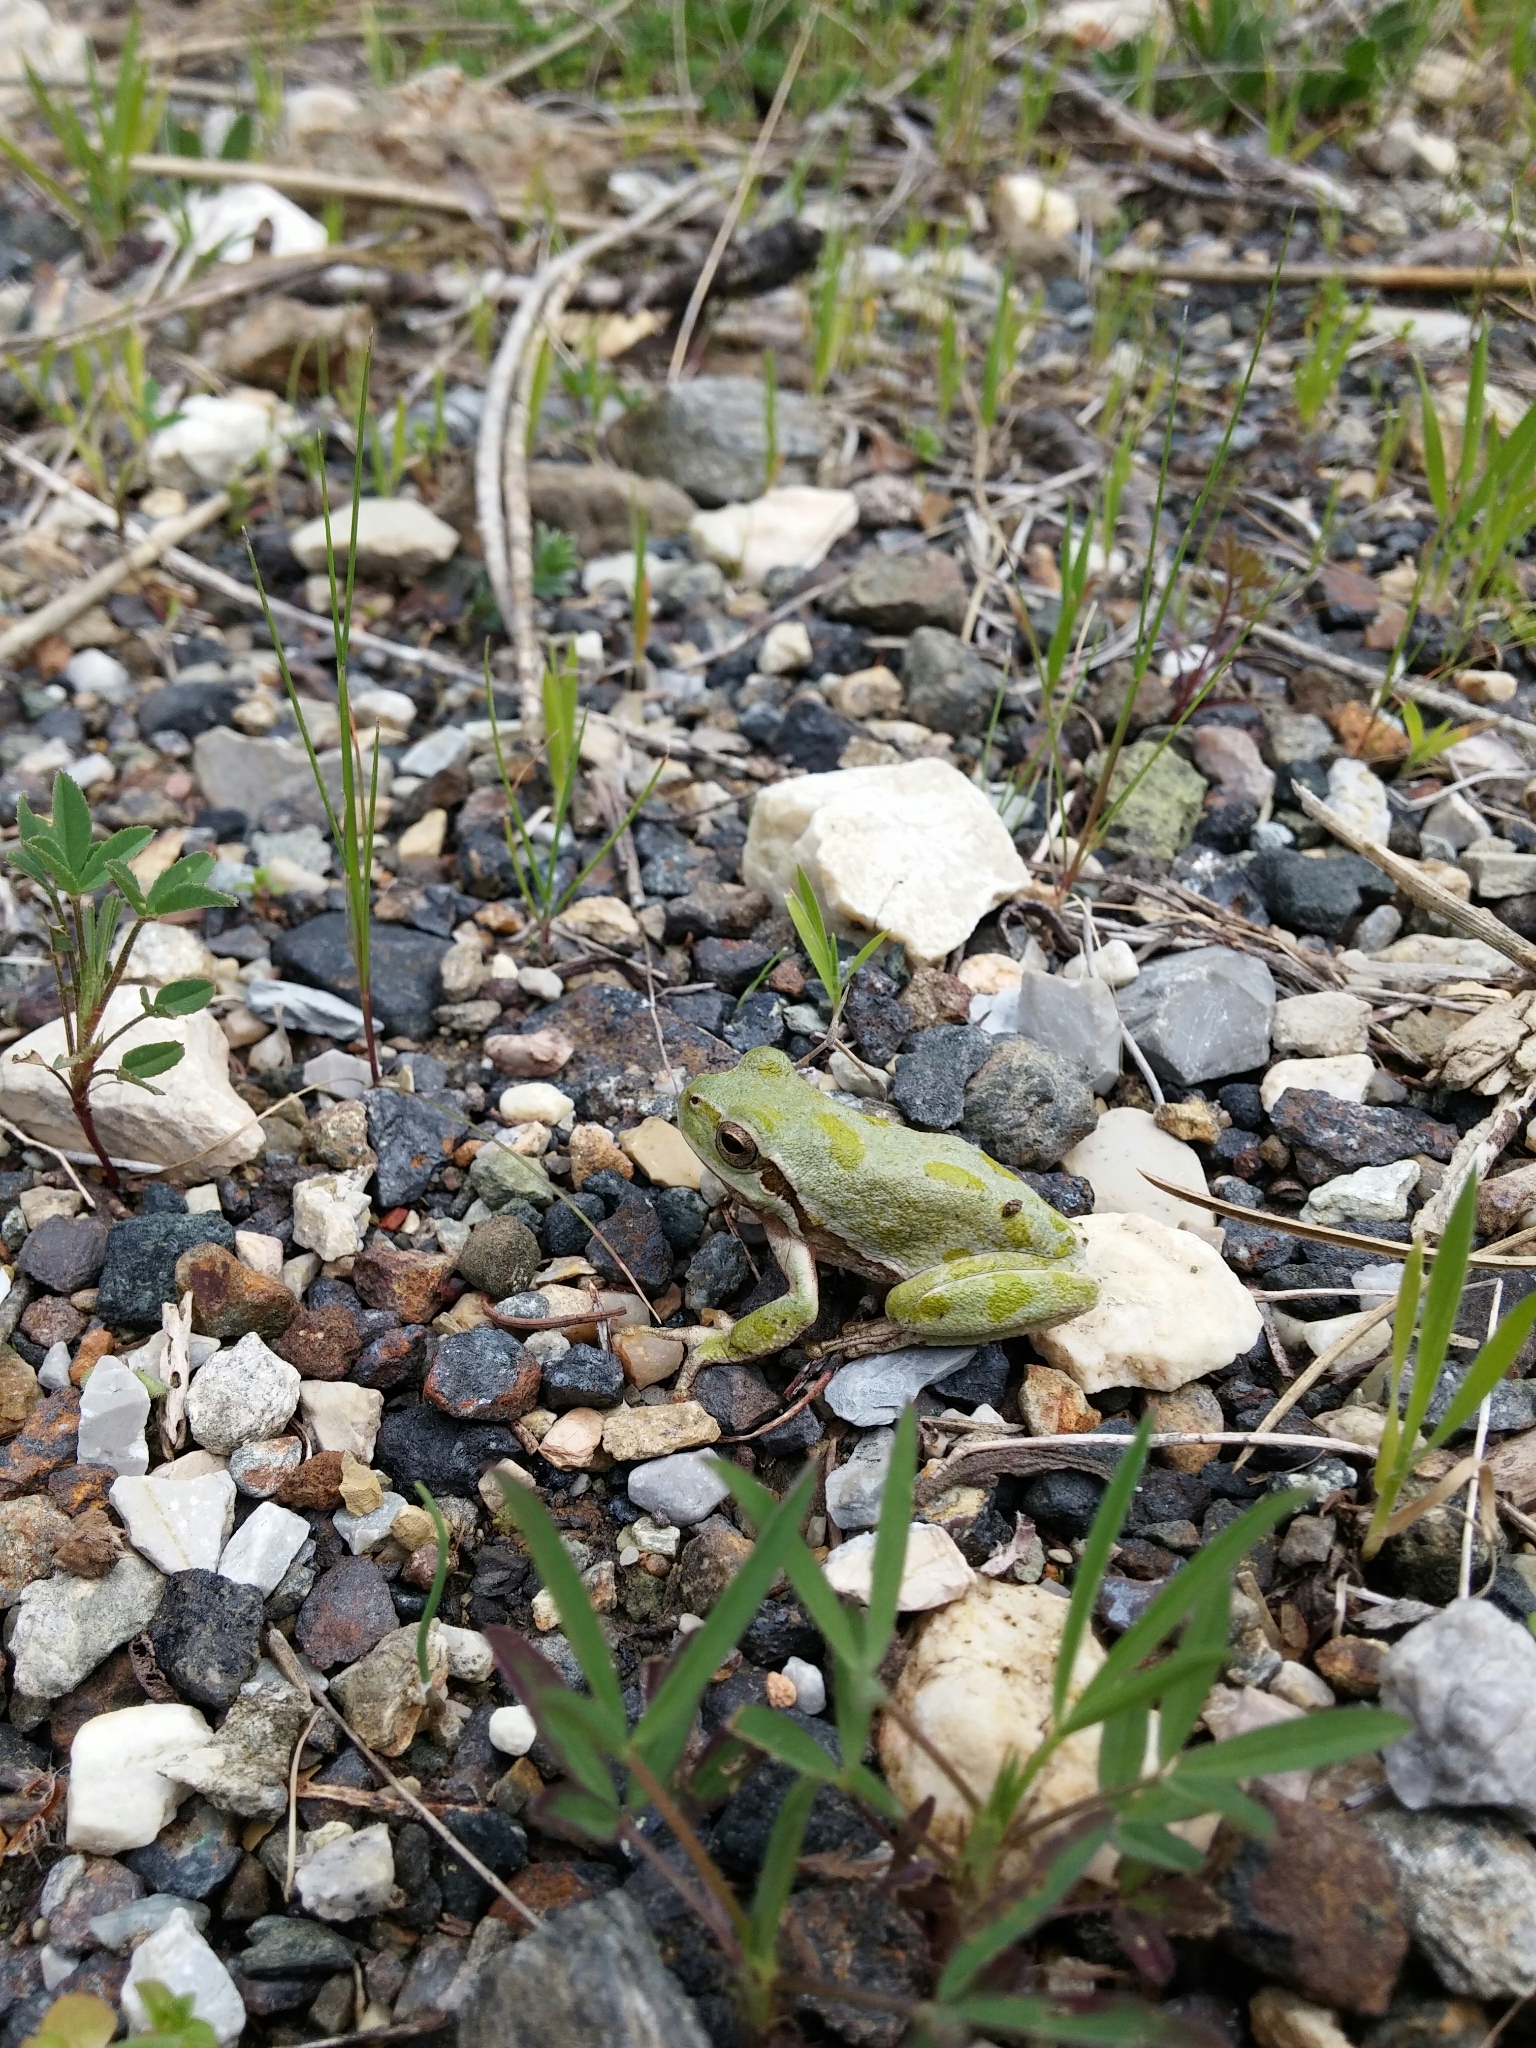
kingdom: Animalia
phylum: Chordata
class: Amphibia
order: Anura
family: Hylidae
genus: Hyla
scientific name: Hyla sarda
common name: Sardinian tree frog
